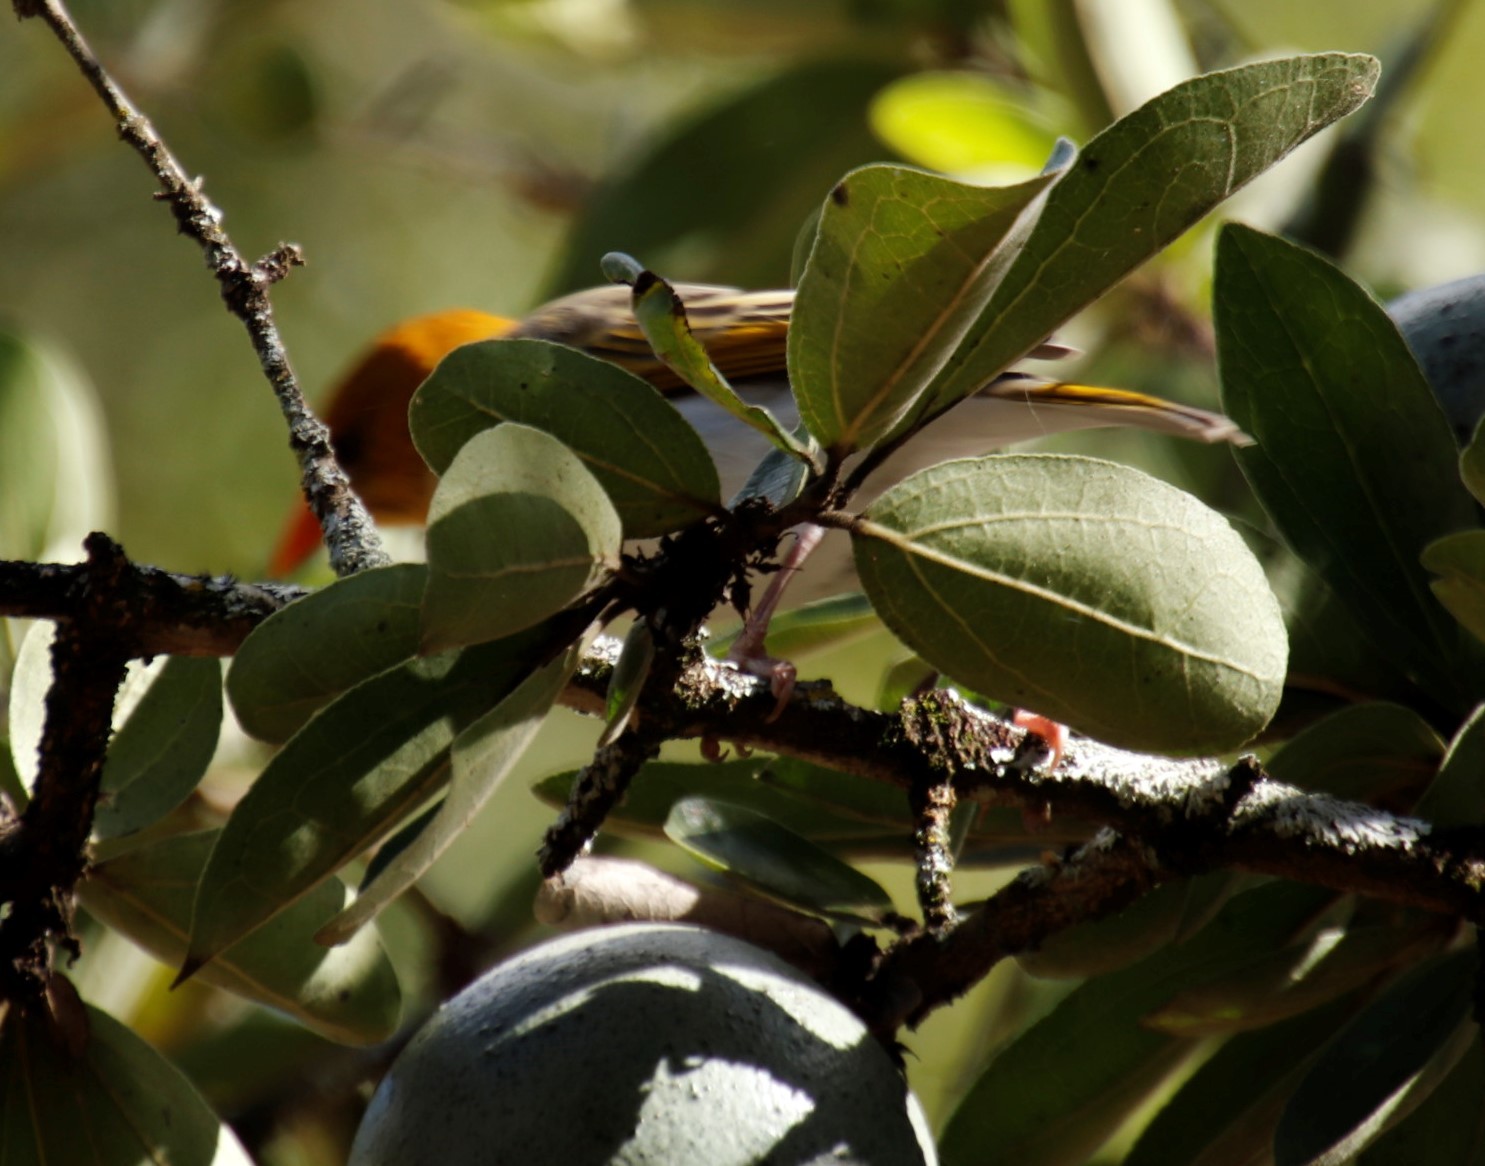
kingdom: Animalia
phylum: Chordata
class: Aves
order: Passeriformes
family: Ploceidae
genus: Anaplectes
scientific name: Anaplectes rubriceps
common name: Red-headed weaver
